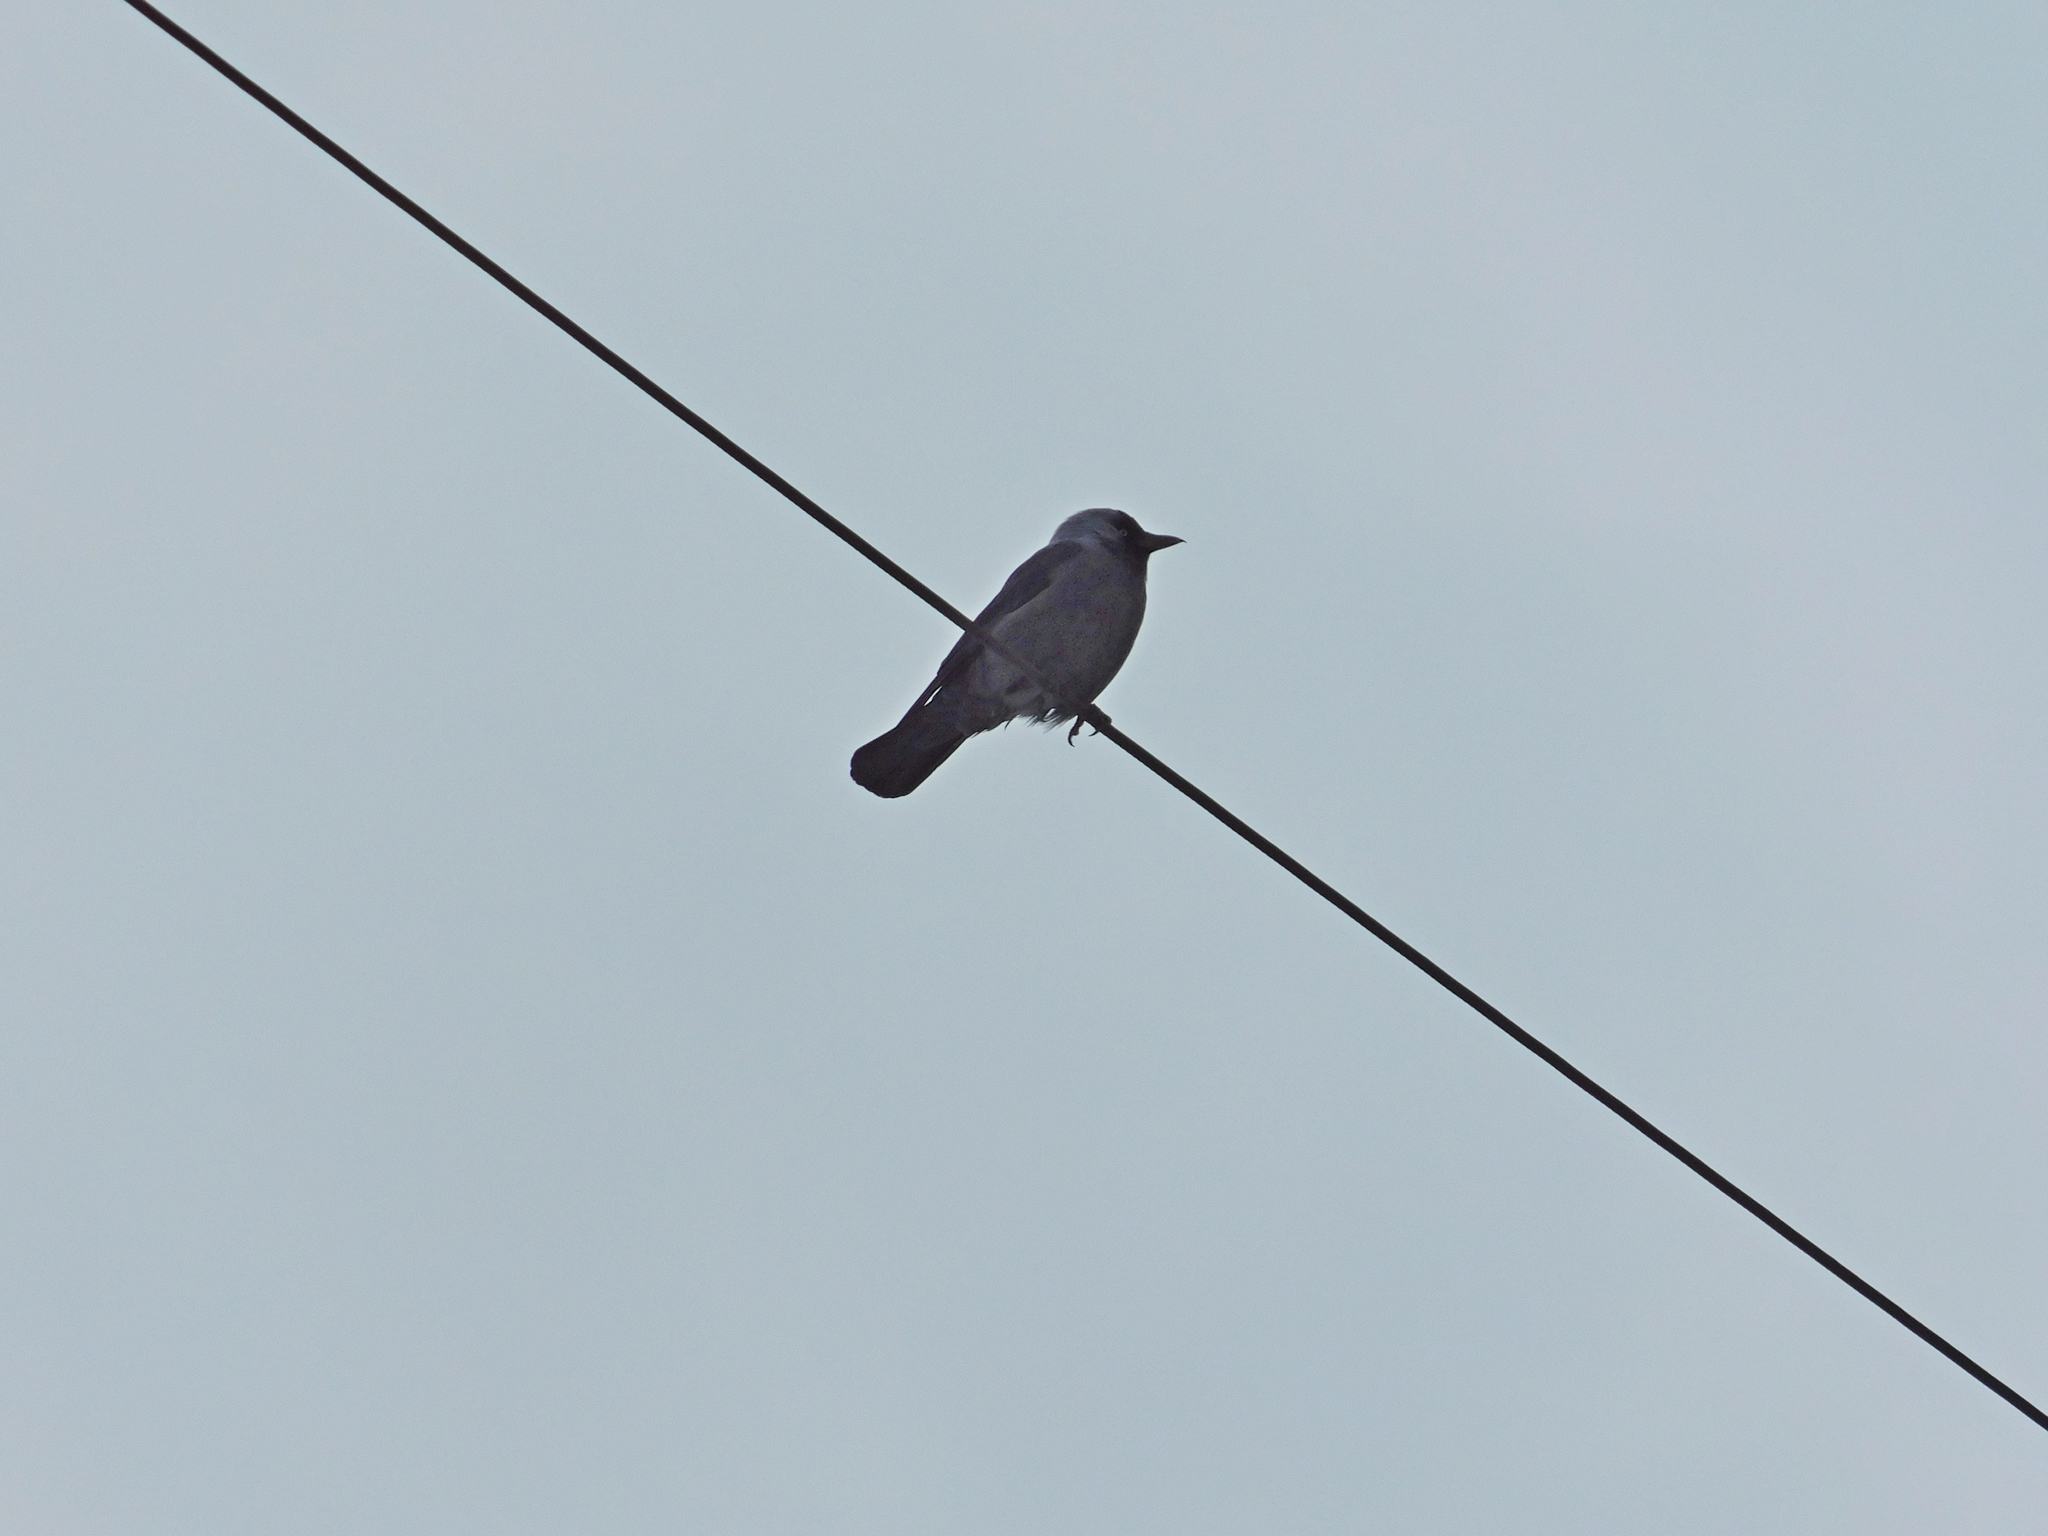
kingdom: Animalia
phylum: Chordata
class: Aves
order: Passeriformes
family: Corvidae
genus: Coloeus
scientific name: Coloeus monedula
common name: Western jackdaw
